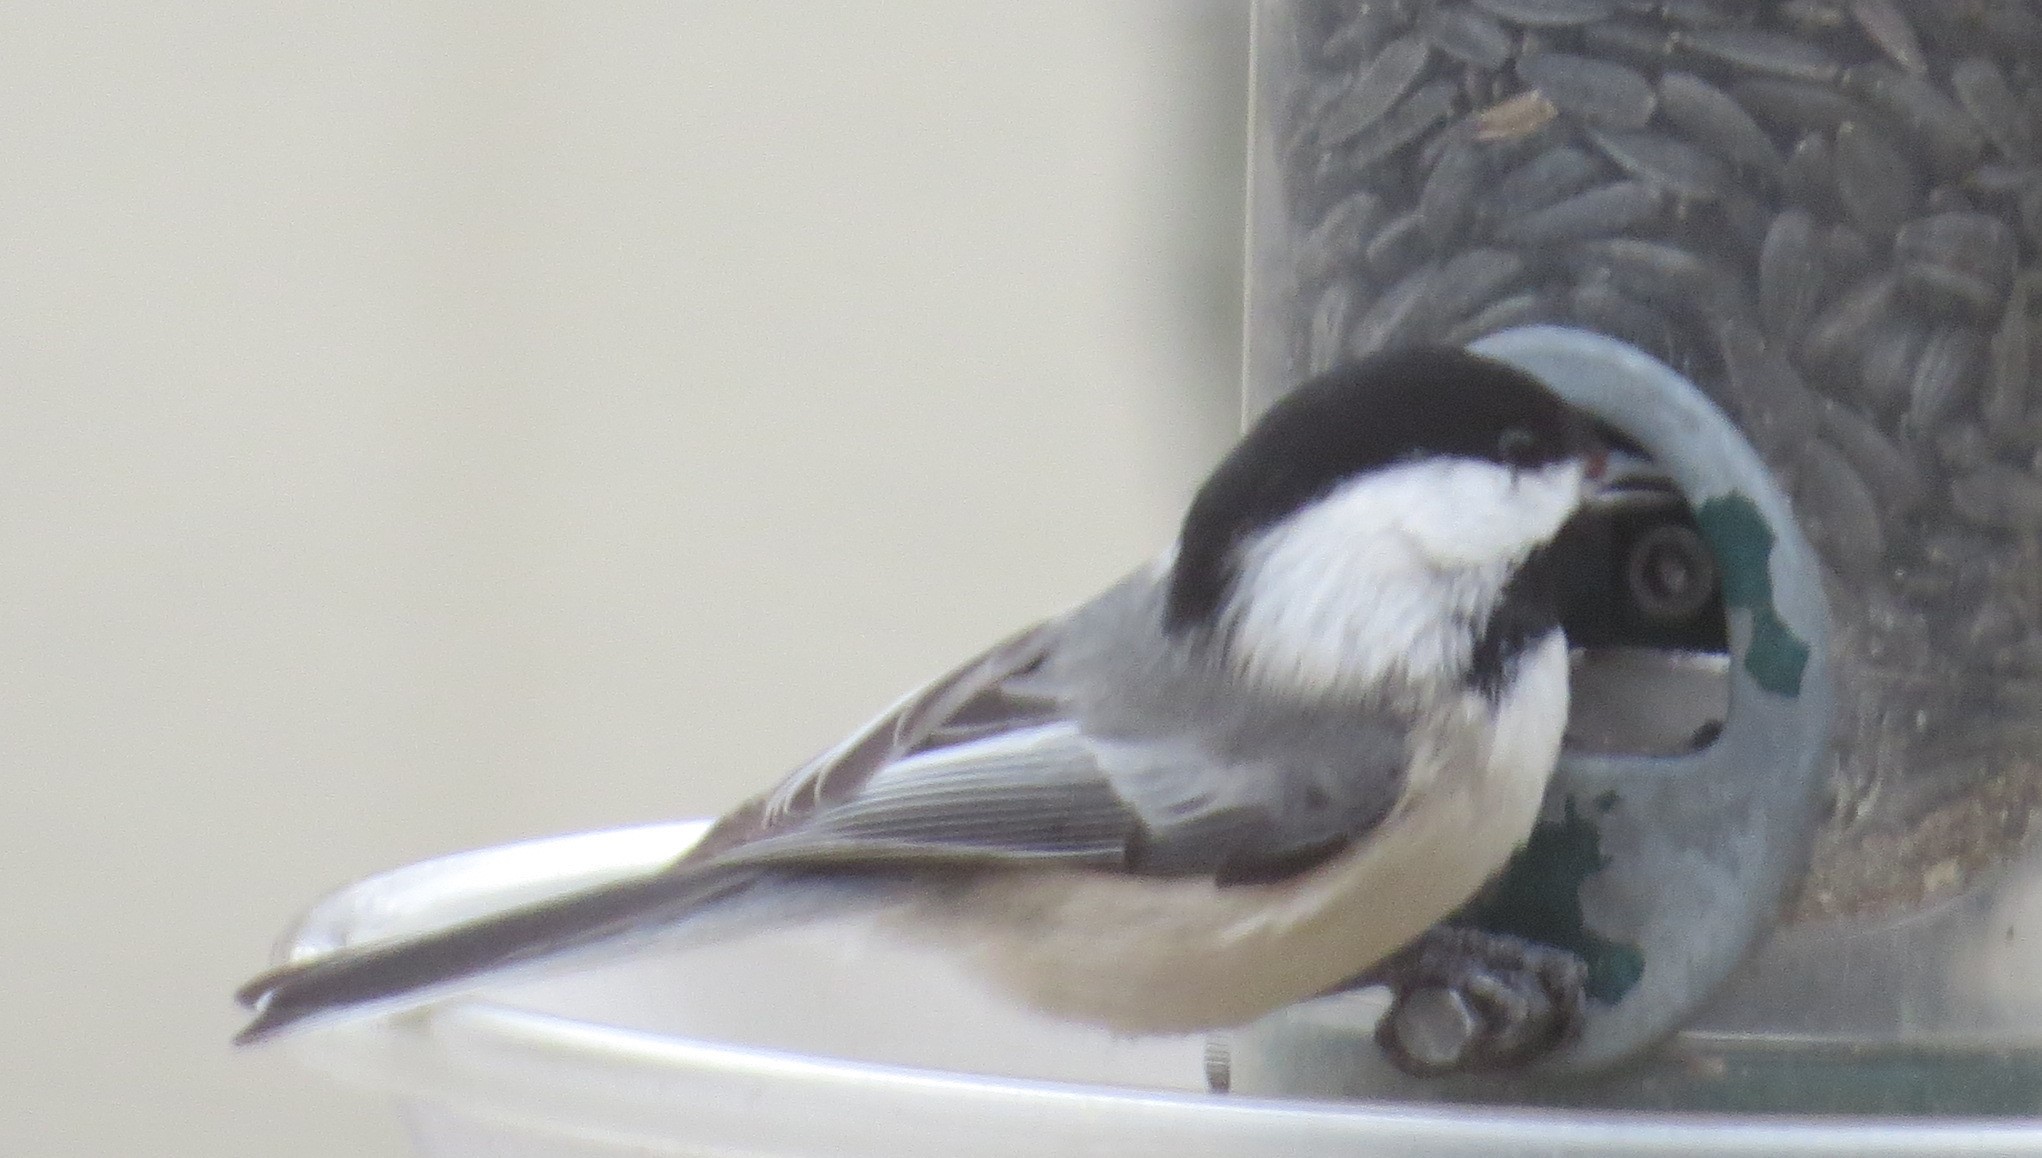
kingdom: Animalia
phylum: Chordata
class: Aves
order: Passeriformes
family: Paridae
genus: Poecile
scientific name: Poecile atricapillus
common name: Black-capped chickadee
